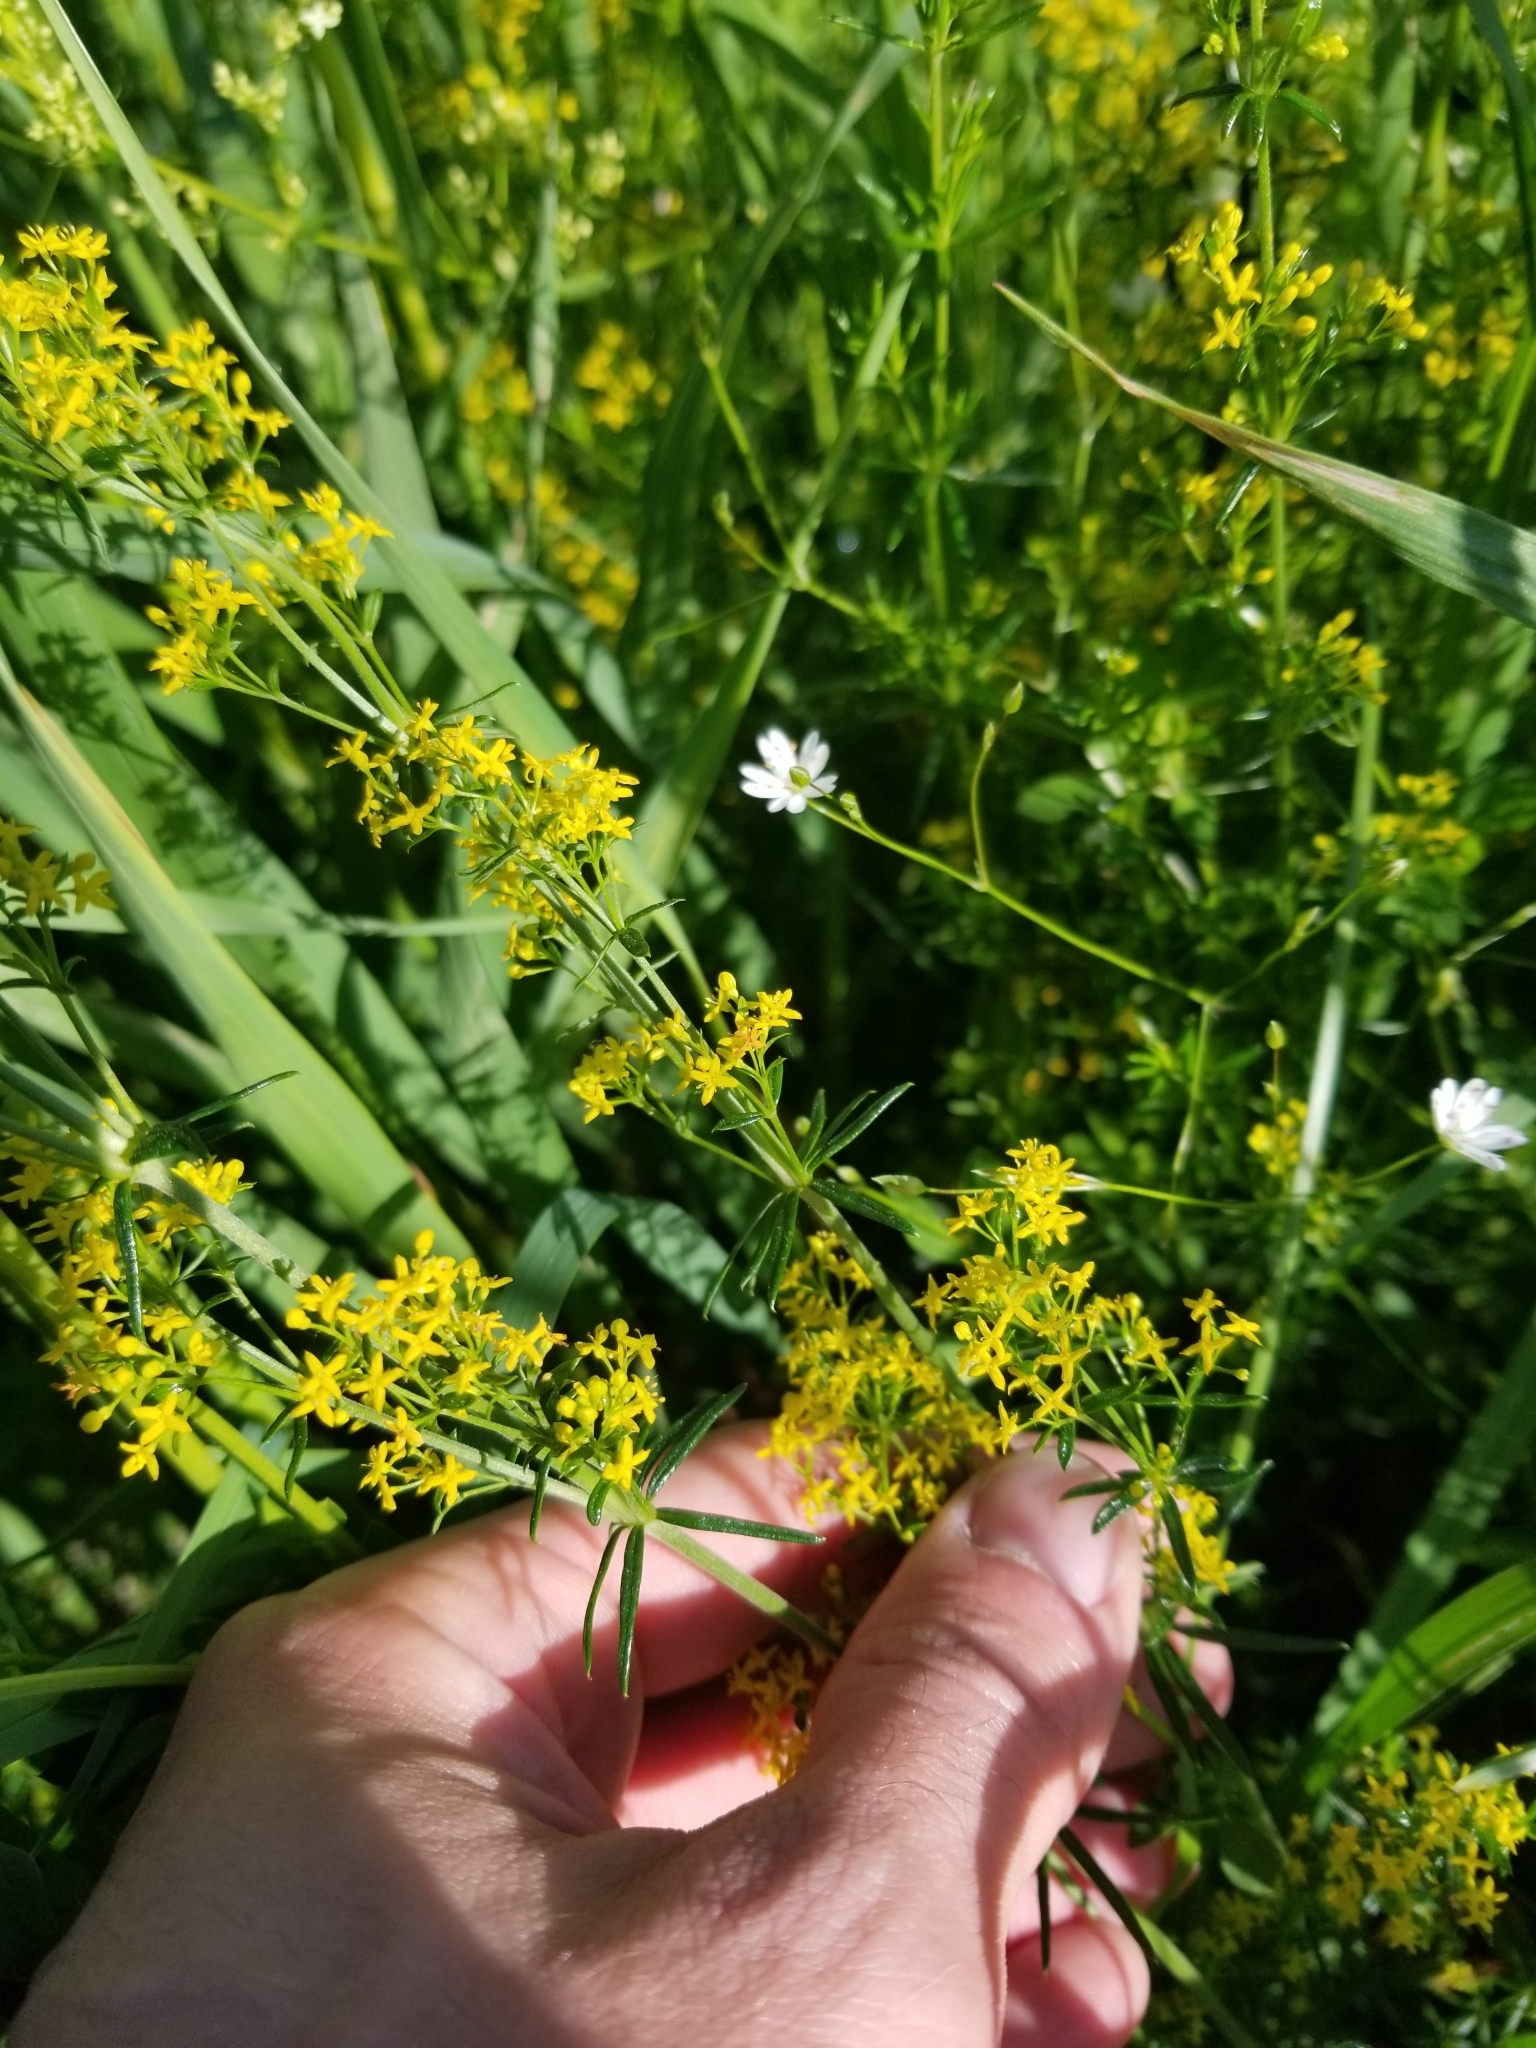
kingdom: Plantae
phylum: Tracheophyta
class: Magnoliopsida
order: Gentianales
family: Rubiaceae
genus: Galium
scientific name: Galium verum
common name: Lady's bedstraw
